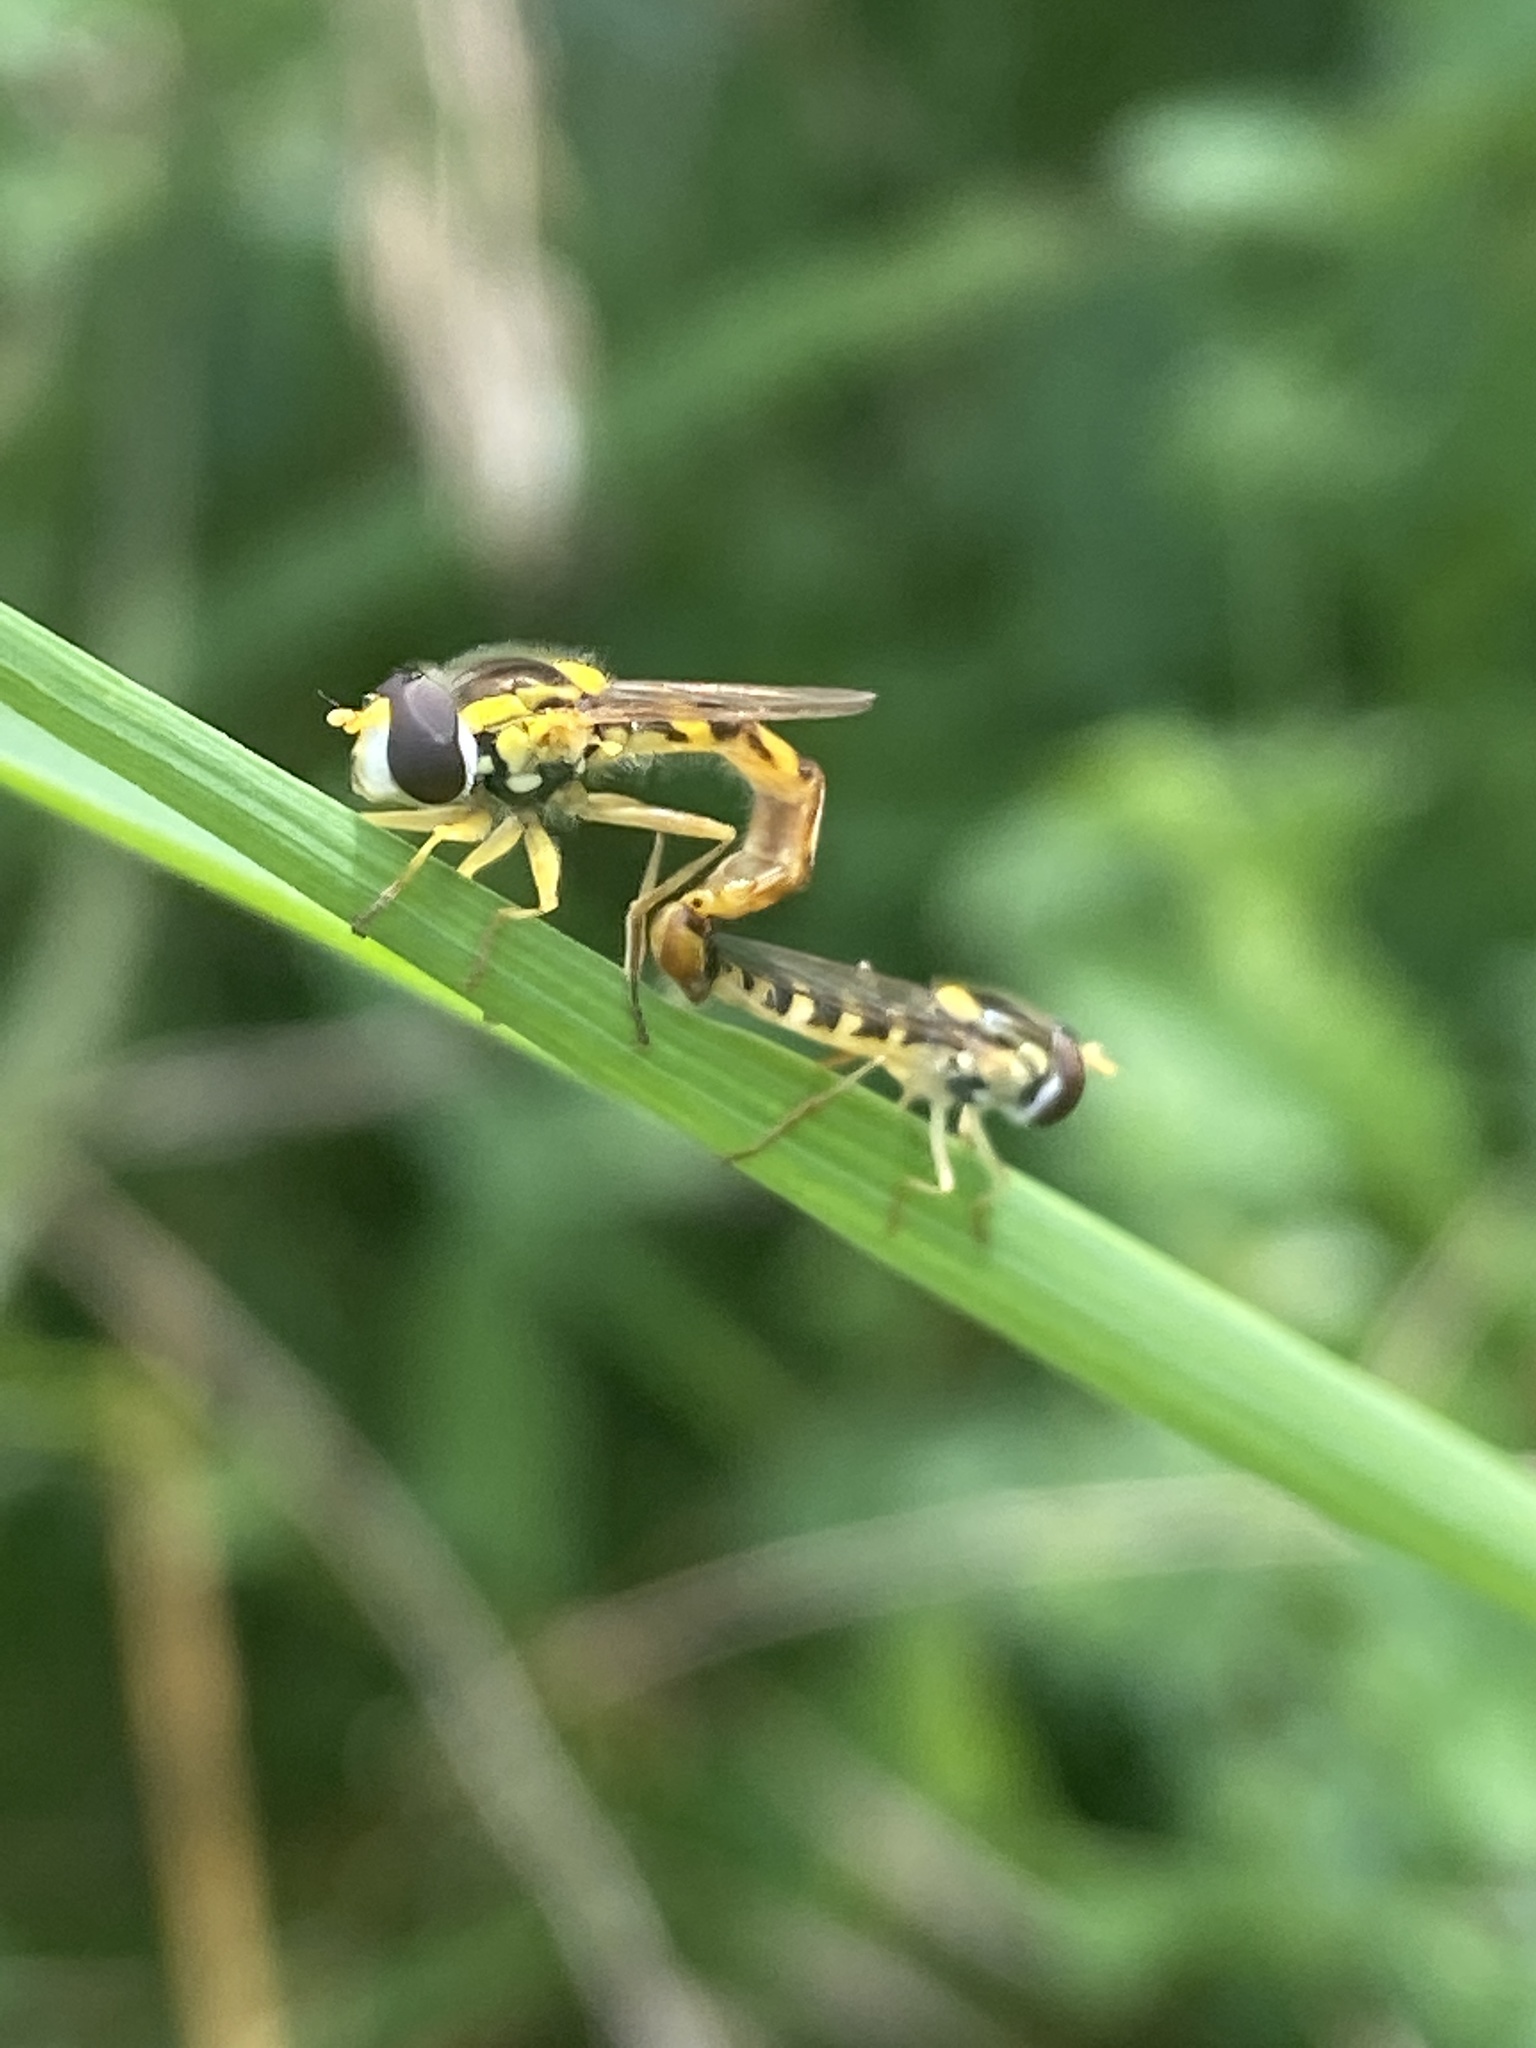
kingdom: Animalia
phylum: Arthropoda
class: Insecta
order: Diptera
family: Syrphidae
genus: Sphaerophoria
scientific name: Sphaerophoria scripta
